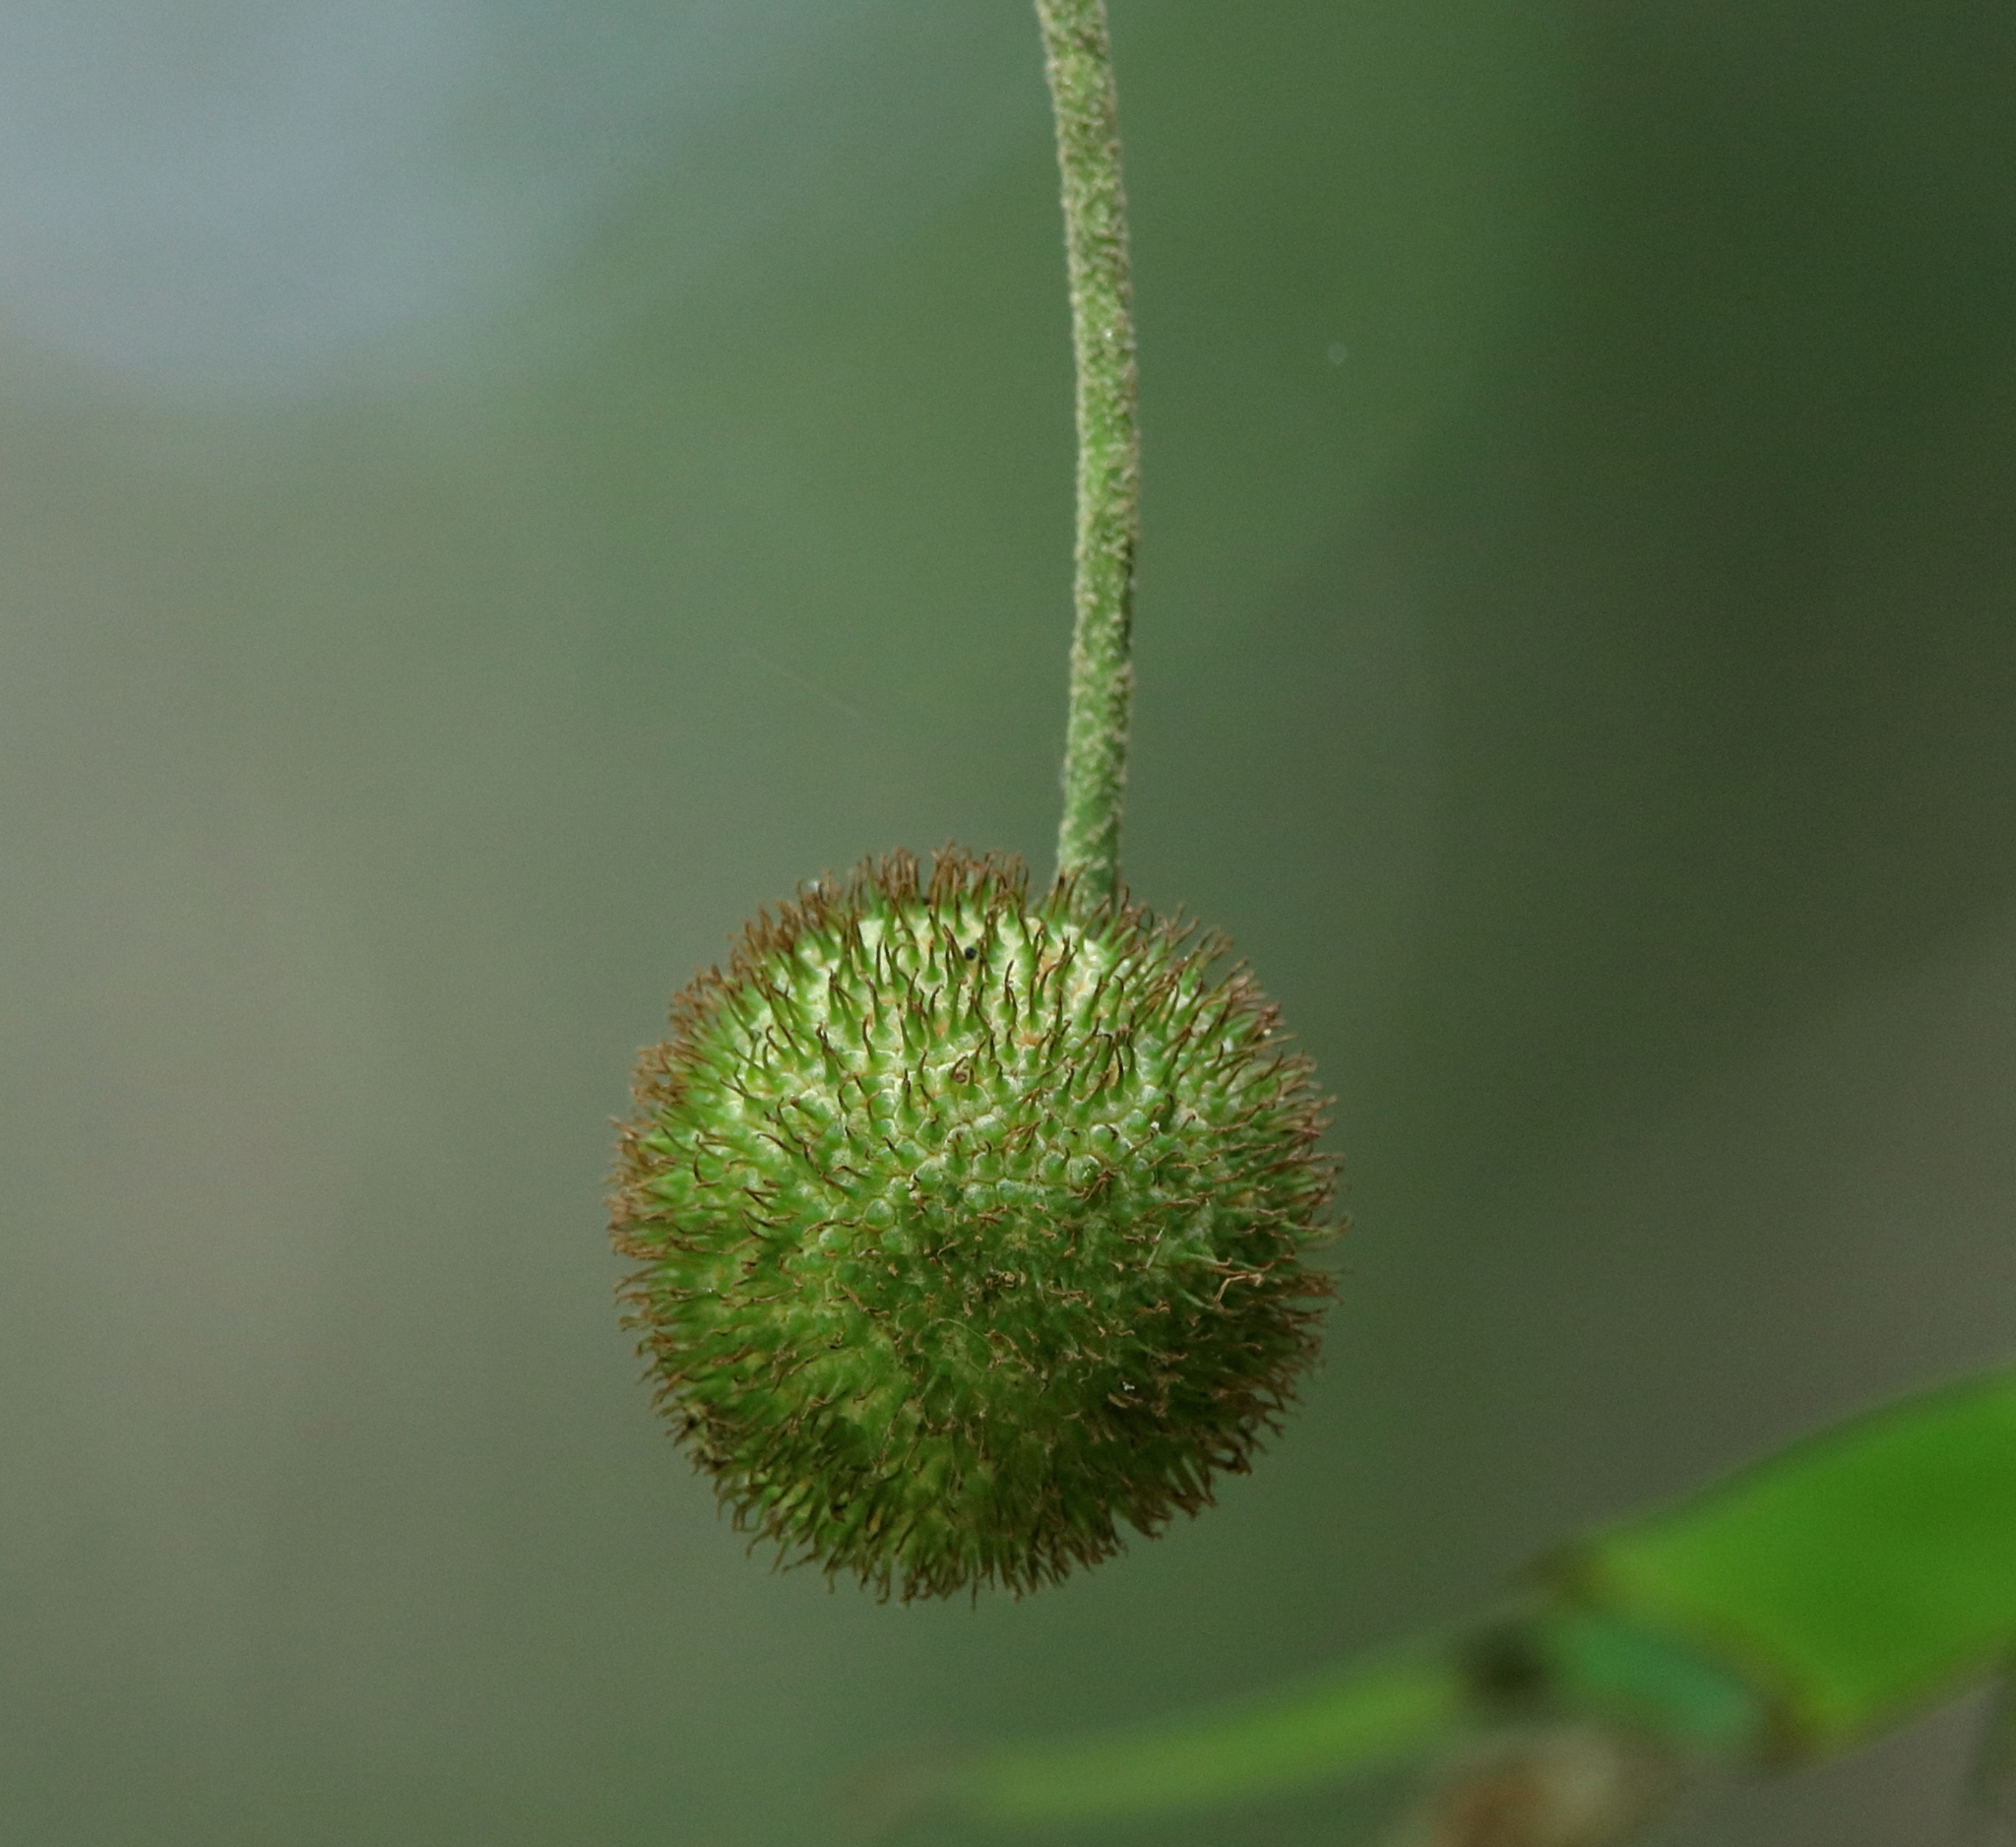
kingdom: Plantae
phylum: Tracheophyta
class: Magnoliopsida
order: Proteales
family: Platanaceae
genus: Platanus
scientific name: Platanus occidentalis
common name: American sycamore
